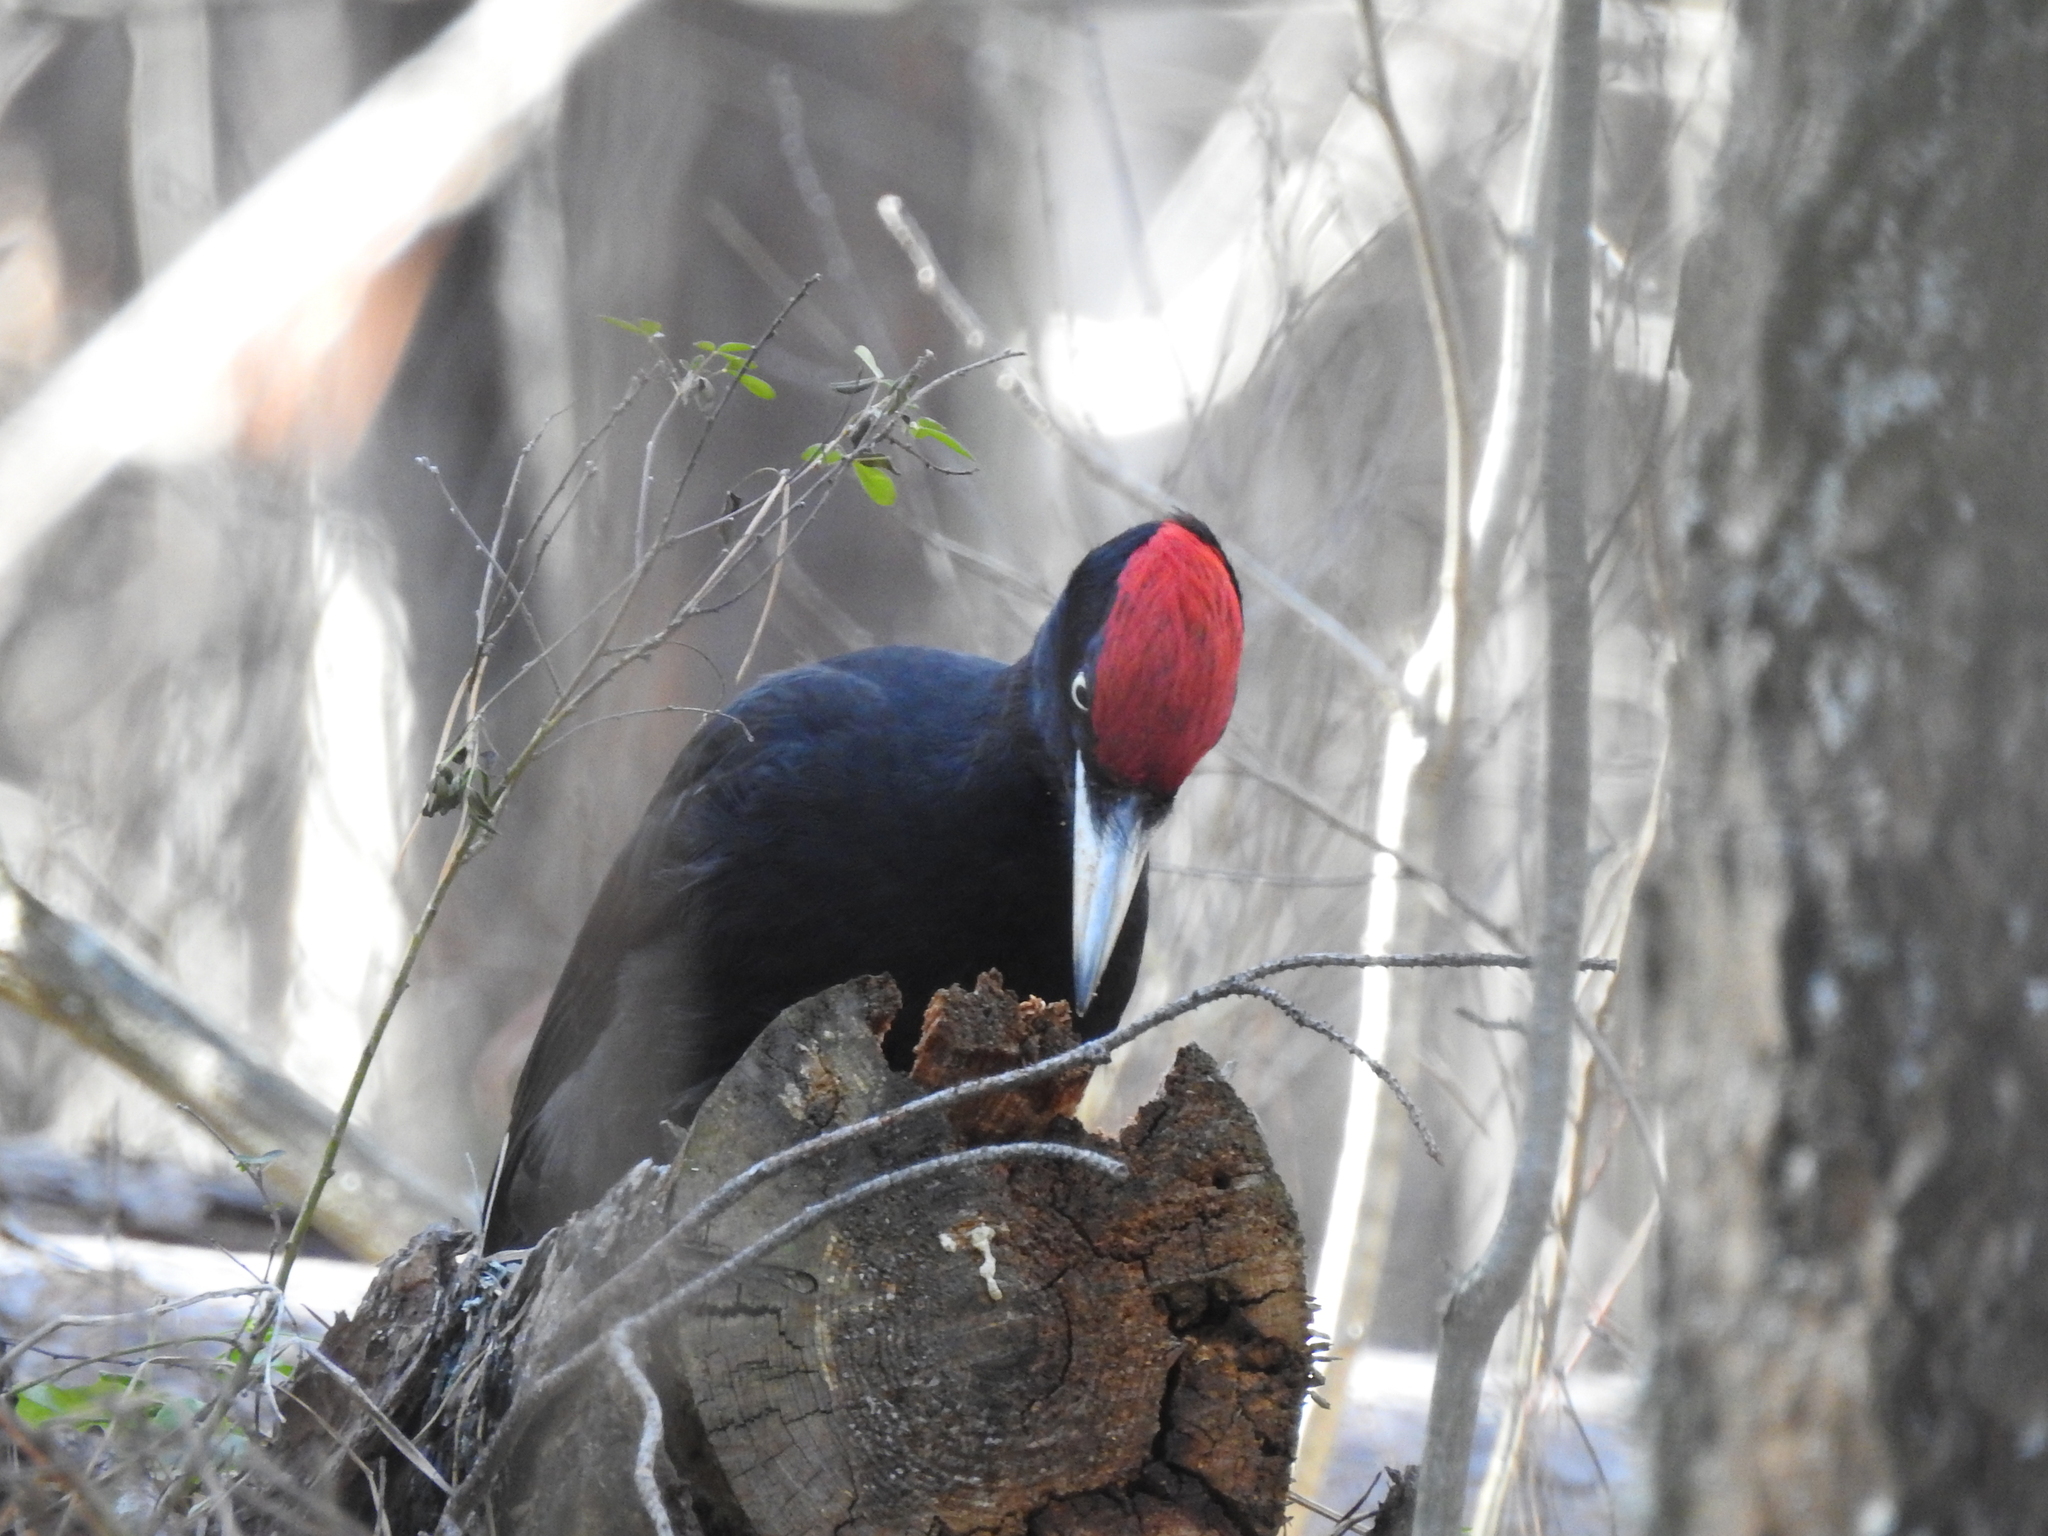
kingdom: Animalia
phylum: Chordata
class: Aves
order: Piciformes
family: Picidae
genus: Dryocopus
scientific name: Dryocopus martius
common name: Black woodpecker
